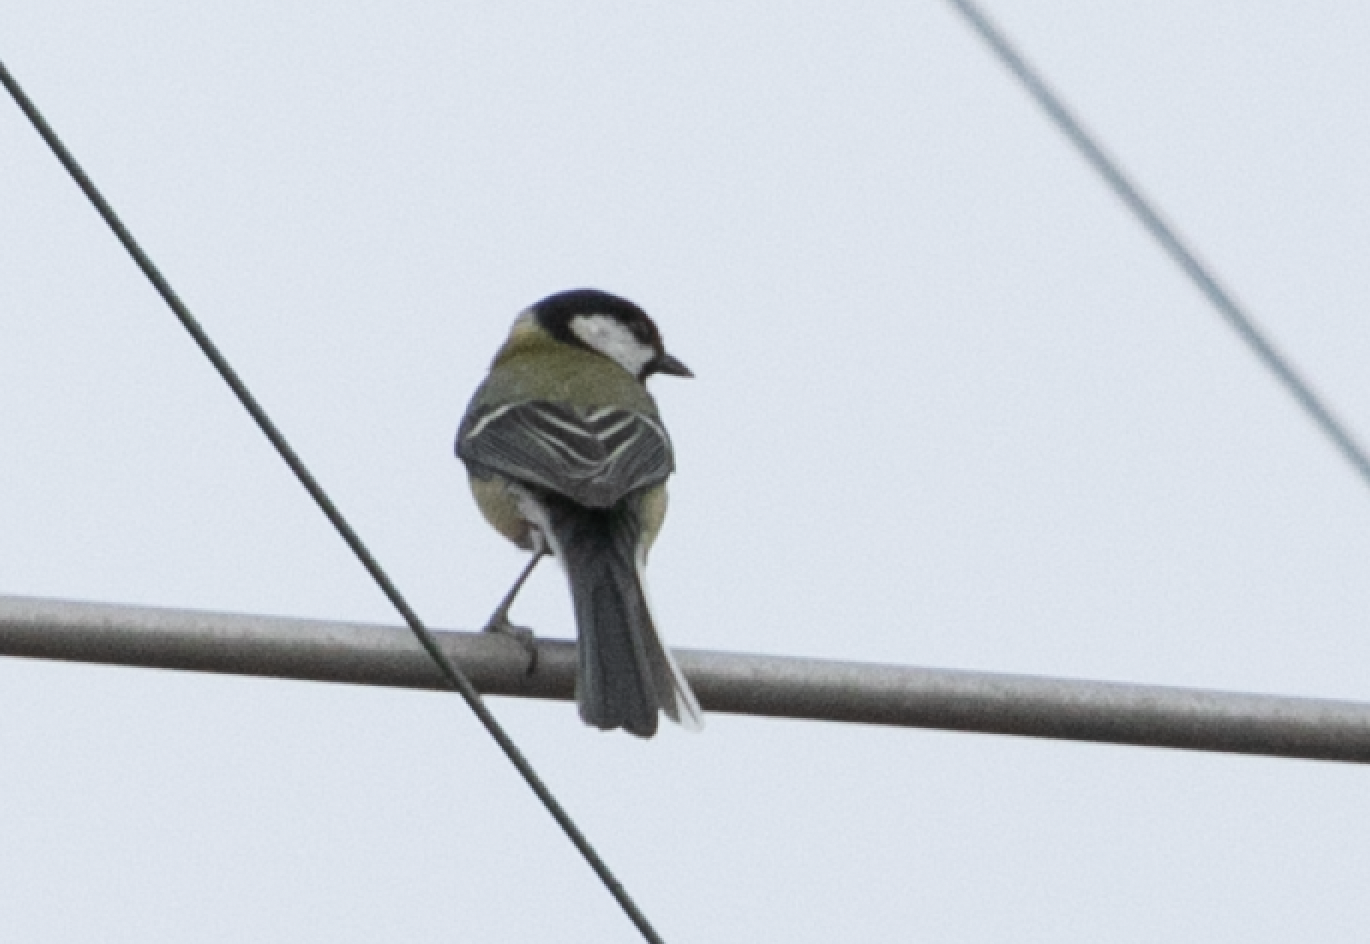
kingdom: Animalia
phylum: Chordata
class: Aves
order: Passeriformes
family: Paridae
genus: Parus
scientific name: Parus major
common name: Great tit
